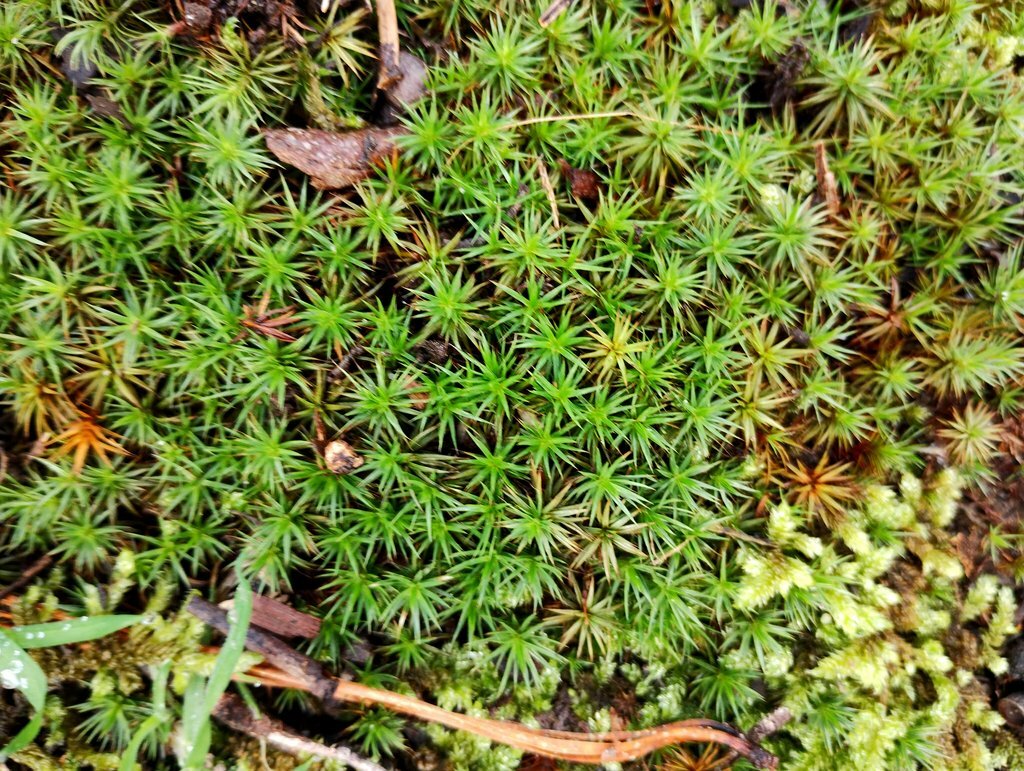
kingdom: Plantae
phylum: Bryophyta
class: Polytrichopsida
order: Polytrichales
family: Polytrichaceae
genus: Polytrichum
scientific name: Polytrichum juniperinum
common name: Juniper haircap moss
